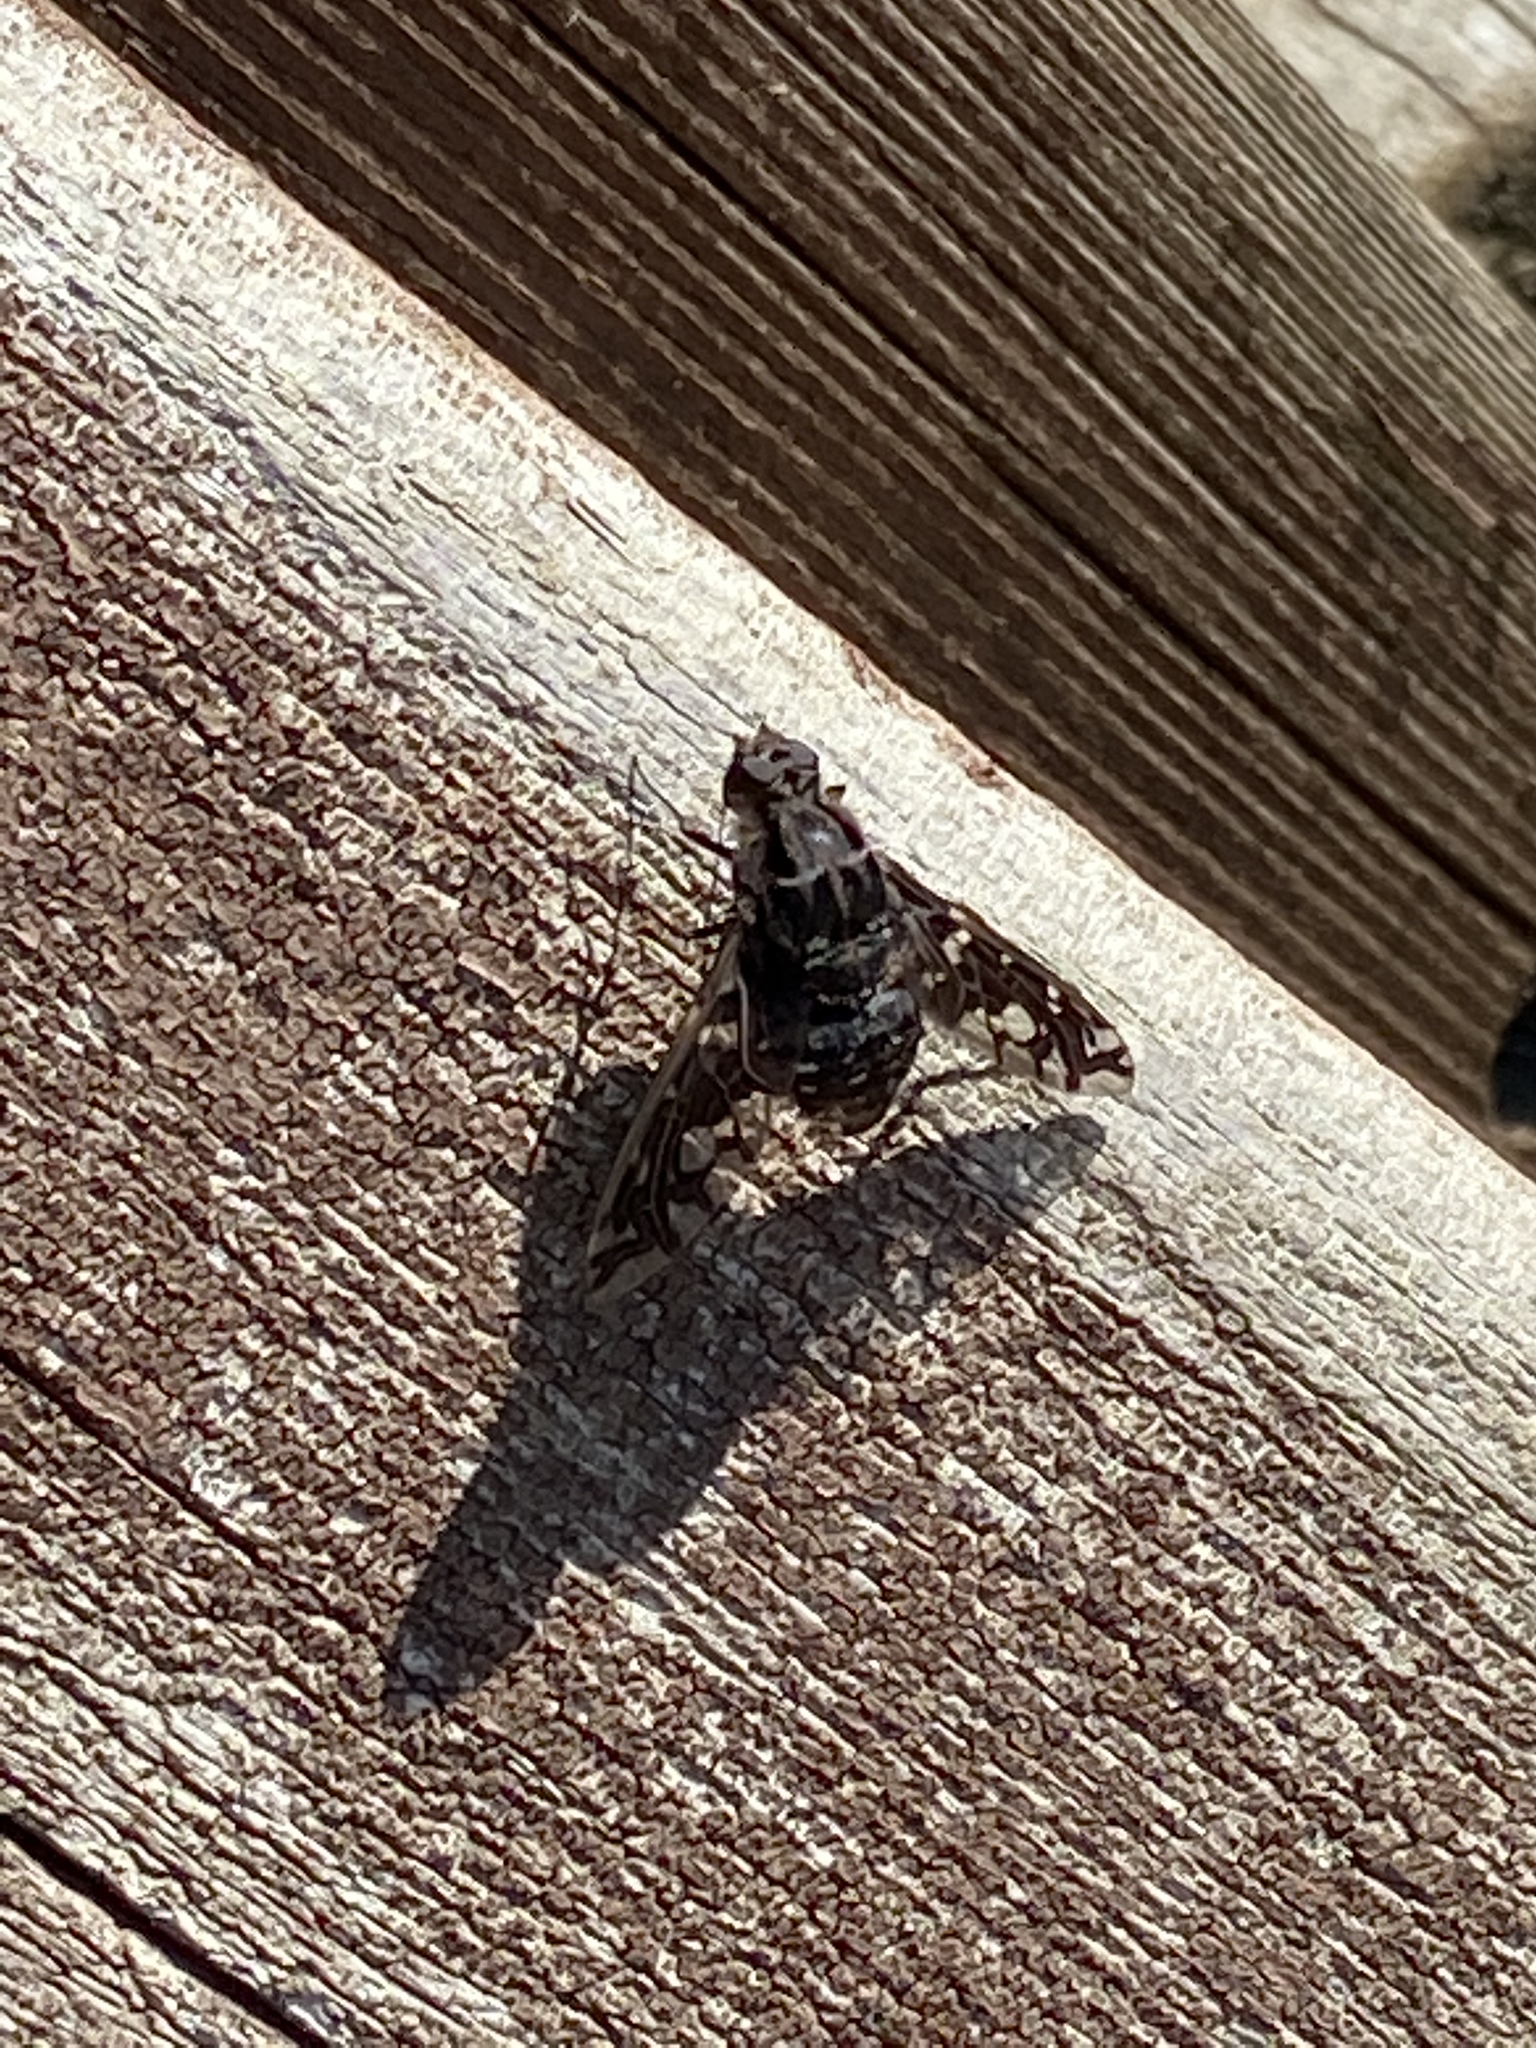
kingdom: Animalia
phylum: Arthropoda
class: Insecta
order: Diptera
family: Bombyliidae
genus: Xenox
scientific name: Xenox tigrinus
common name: Tiger bee fly
